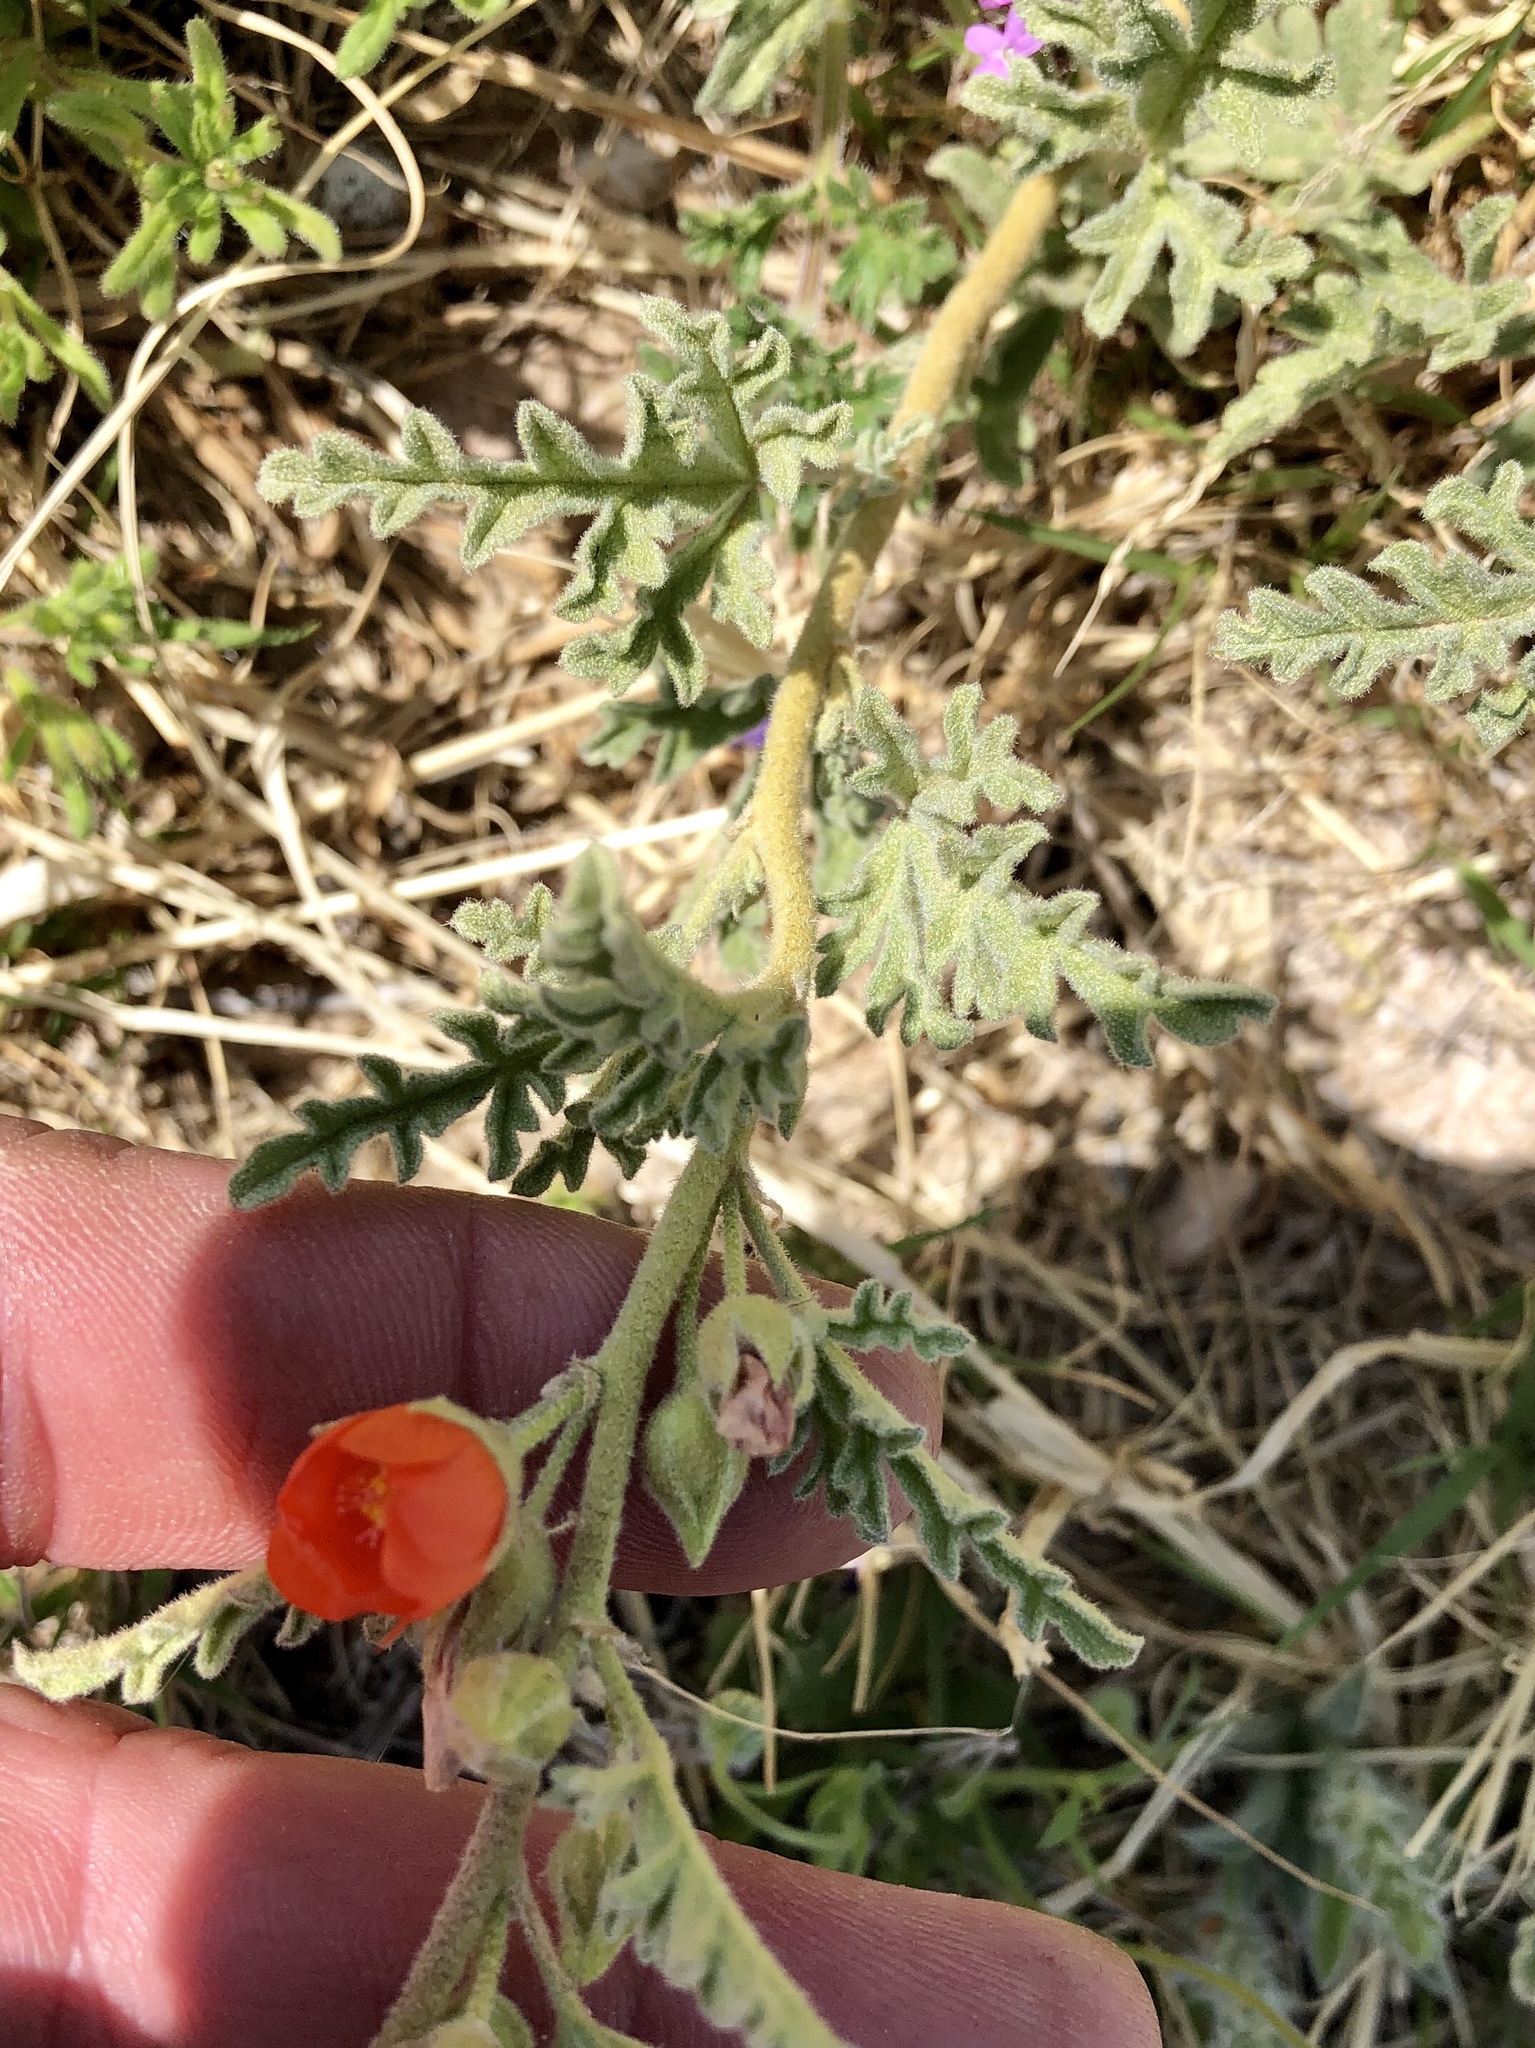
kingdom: Plantae
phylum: Tracheophyta
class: Magnoliopsida
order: Malvales
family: Malvaceae
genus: Sphaeralcea
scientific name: Sphaeralcea hastulata
